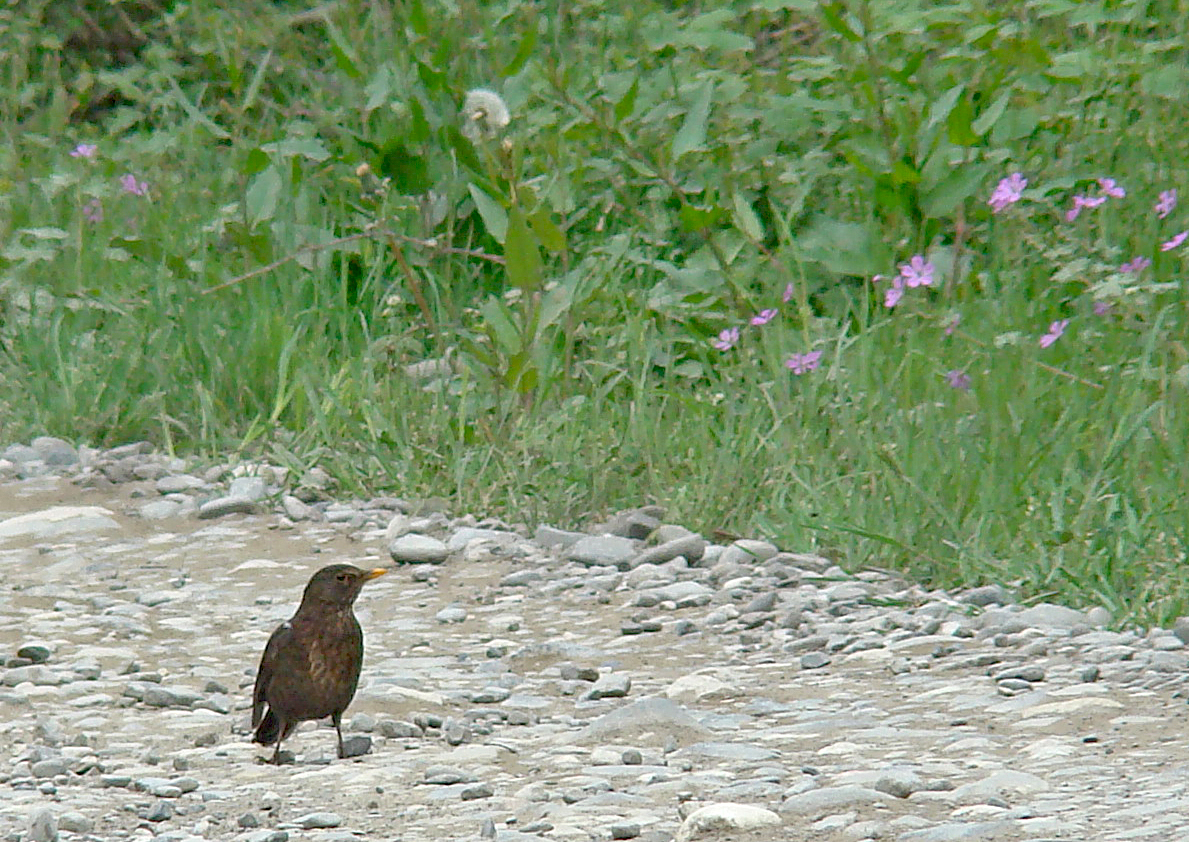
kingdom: Animalia
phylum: Chordata
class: Aves
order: Passeriformes
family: Turdidae
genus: Turdus
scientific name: Turdus merula
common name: Common blackbird
